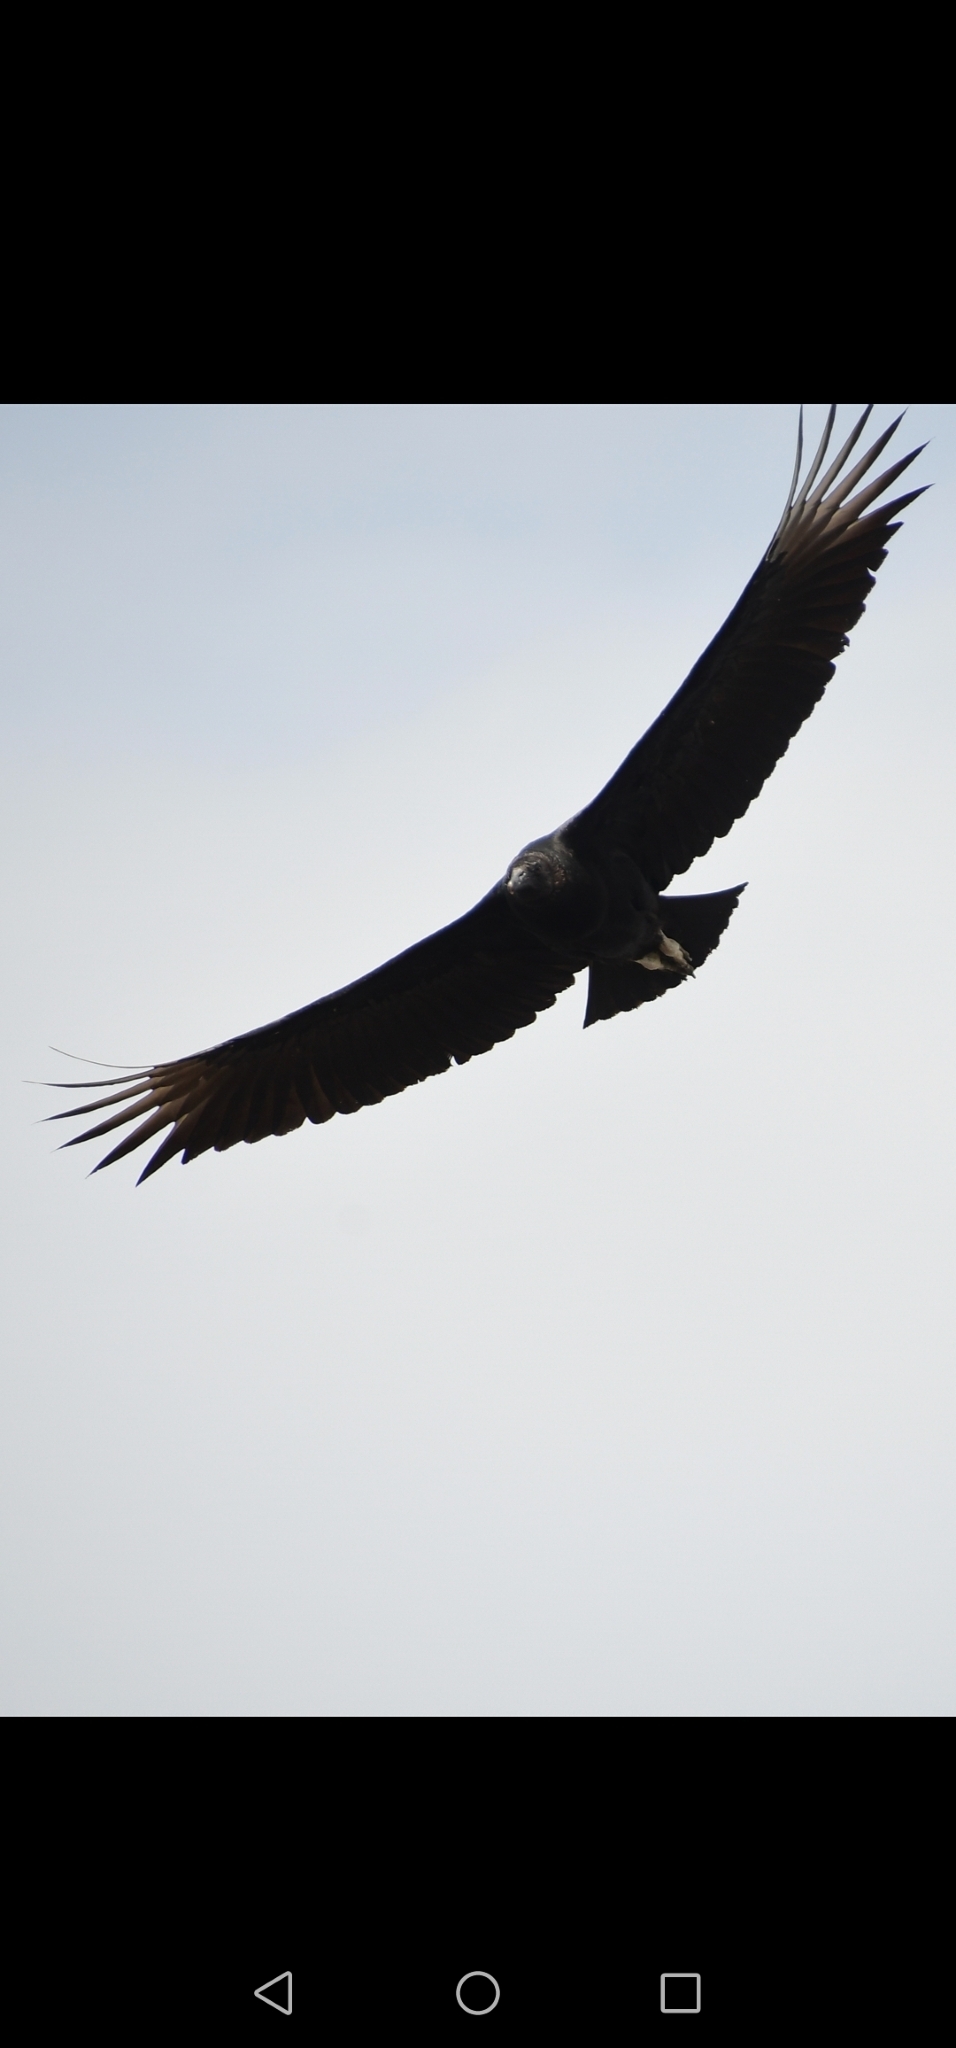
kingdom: Animalia
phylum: Chordata
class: Aves
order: Accipitriformes
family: Cathartidae
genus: Coragyps
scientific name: Coragyps atratus
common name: Black vulture
